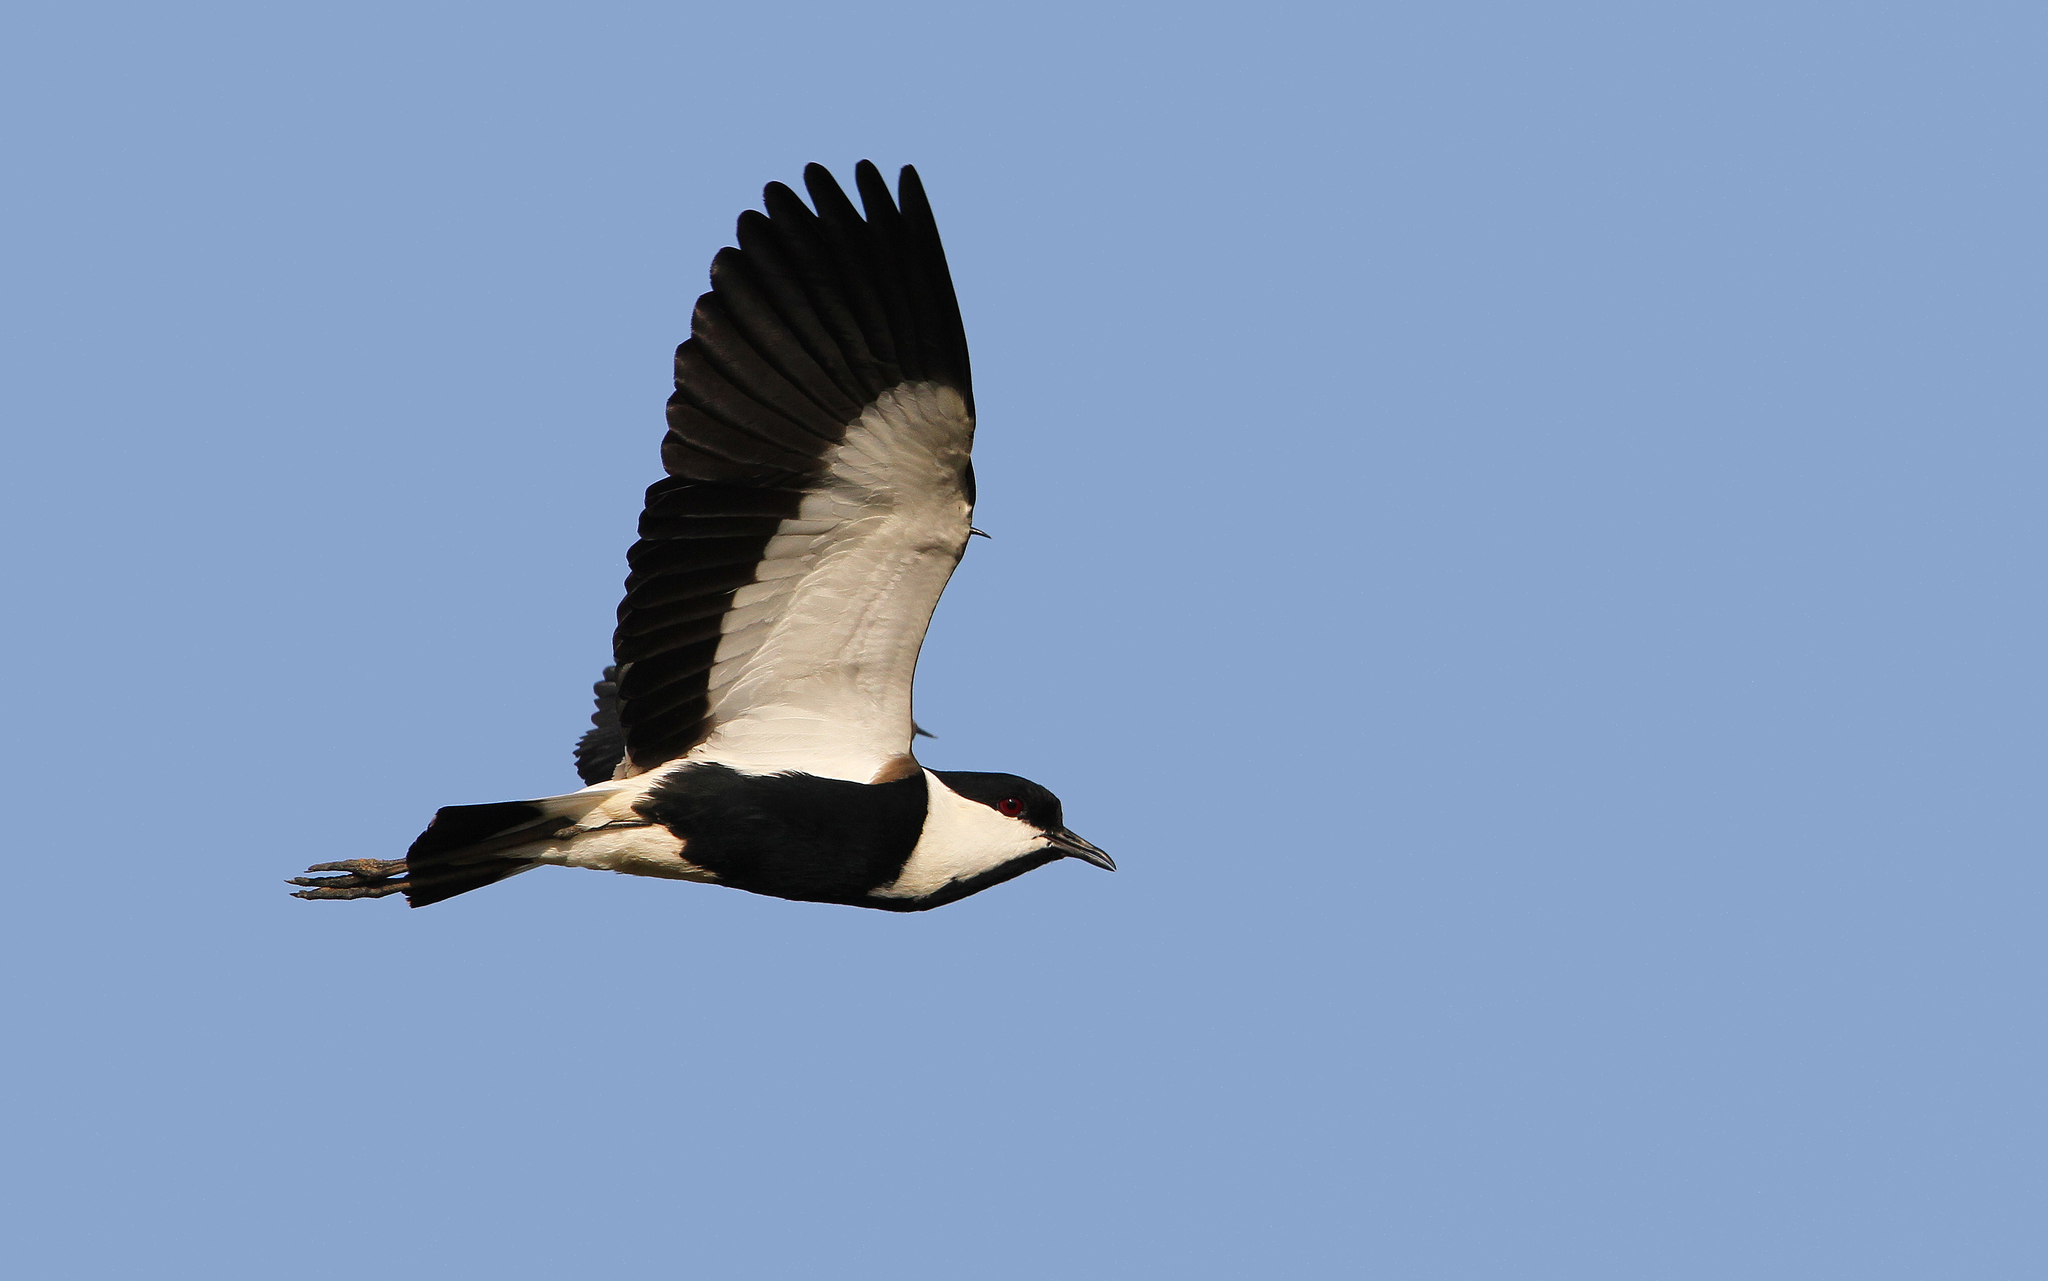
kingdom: Animalia
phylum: Chordata
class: Aves
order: Charadriiformes
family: Charadriidae
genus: Vanellus
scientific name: Vanellus spinosus
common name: Spur-winged lapwing
